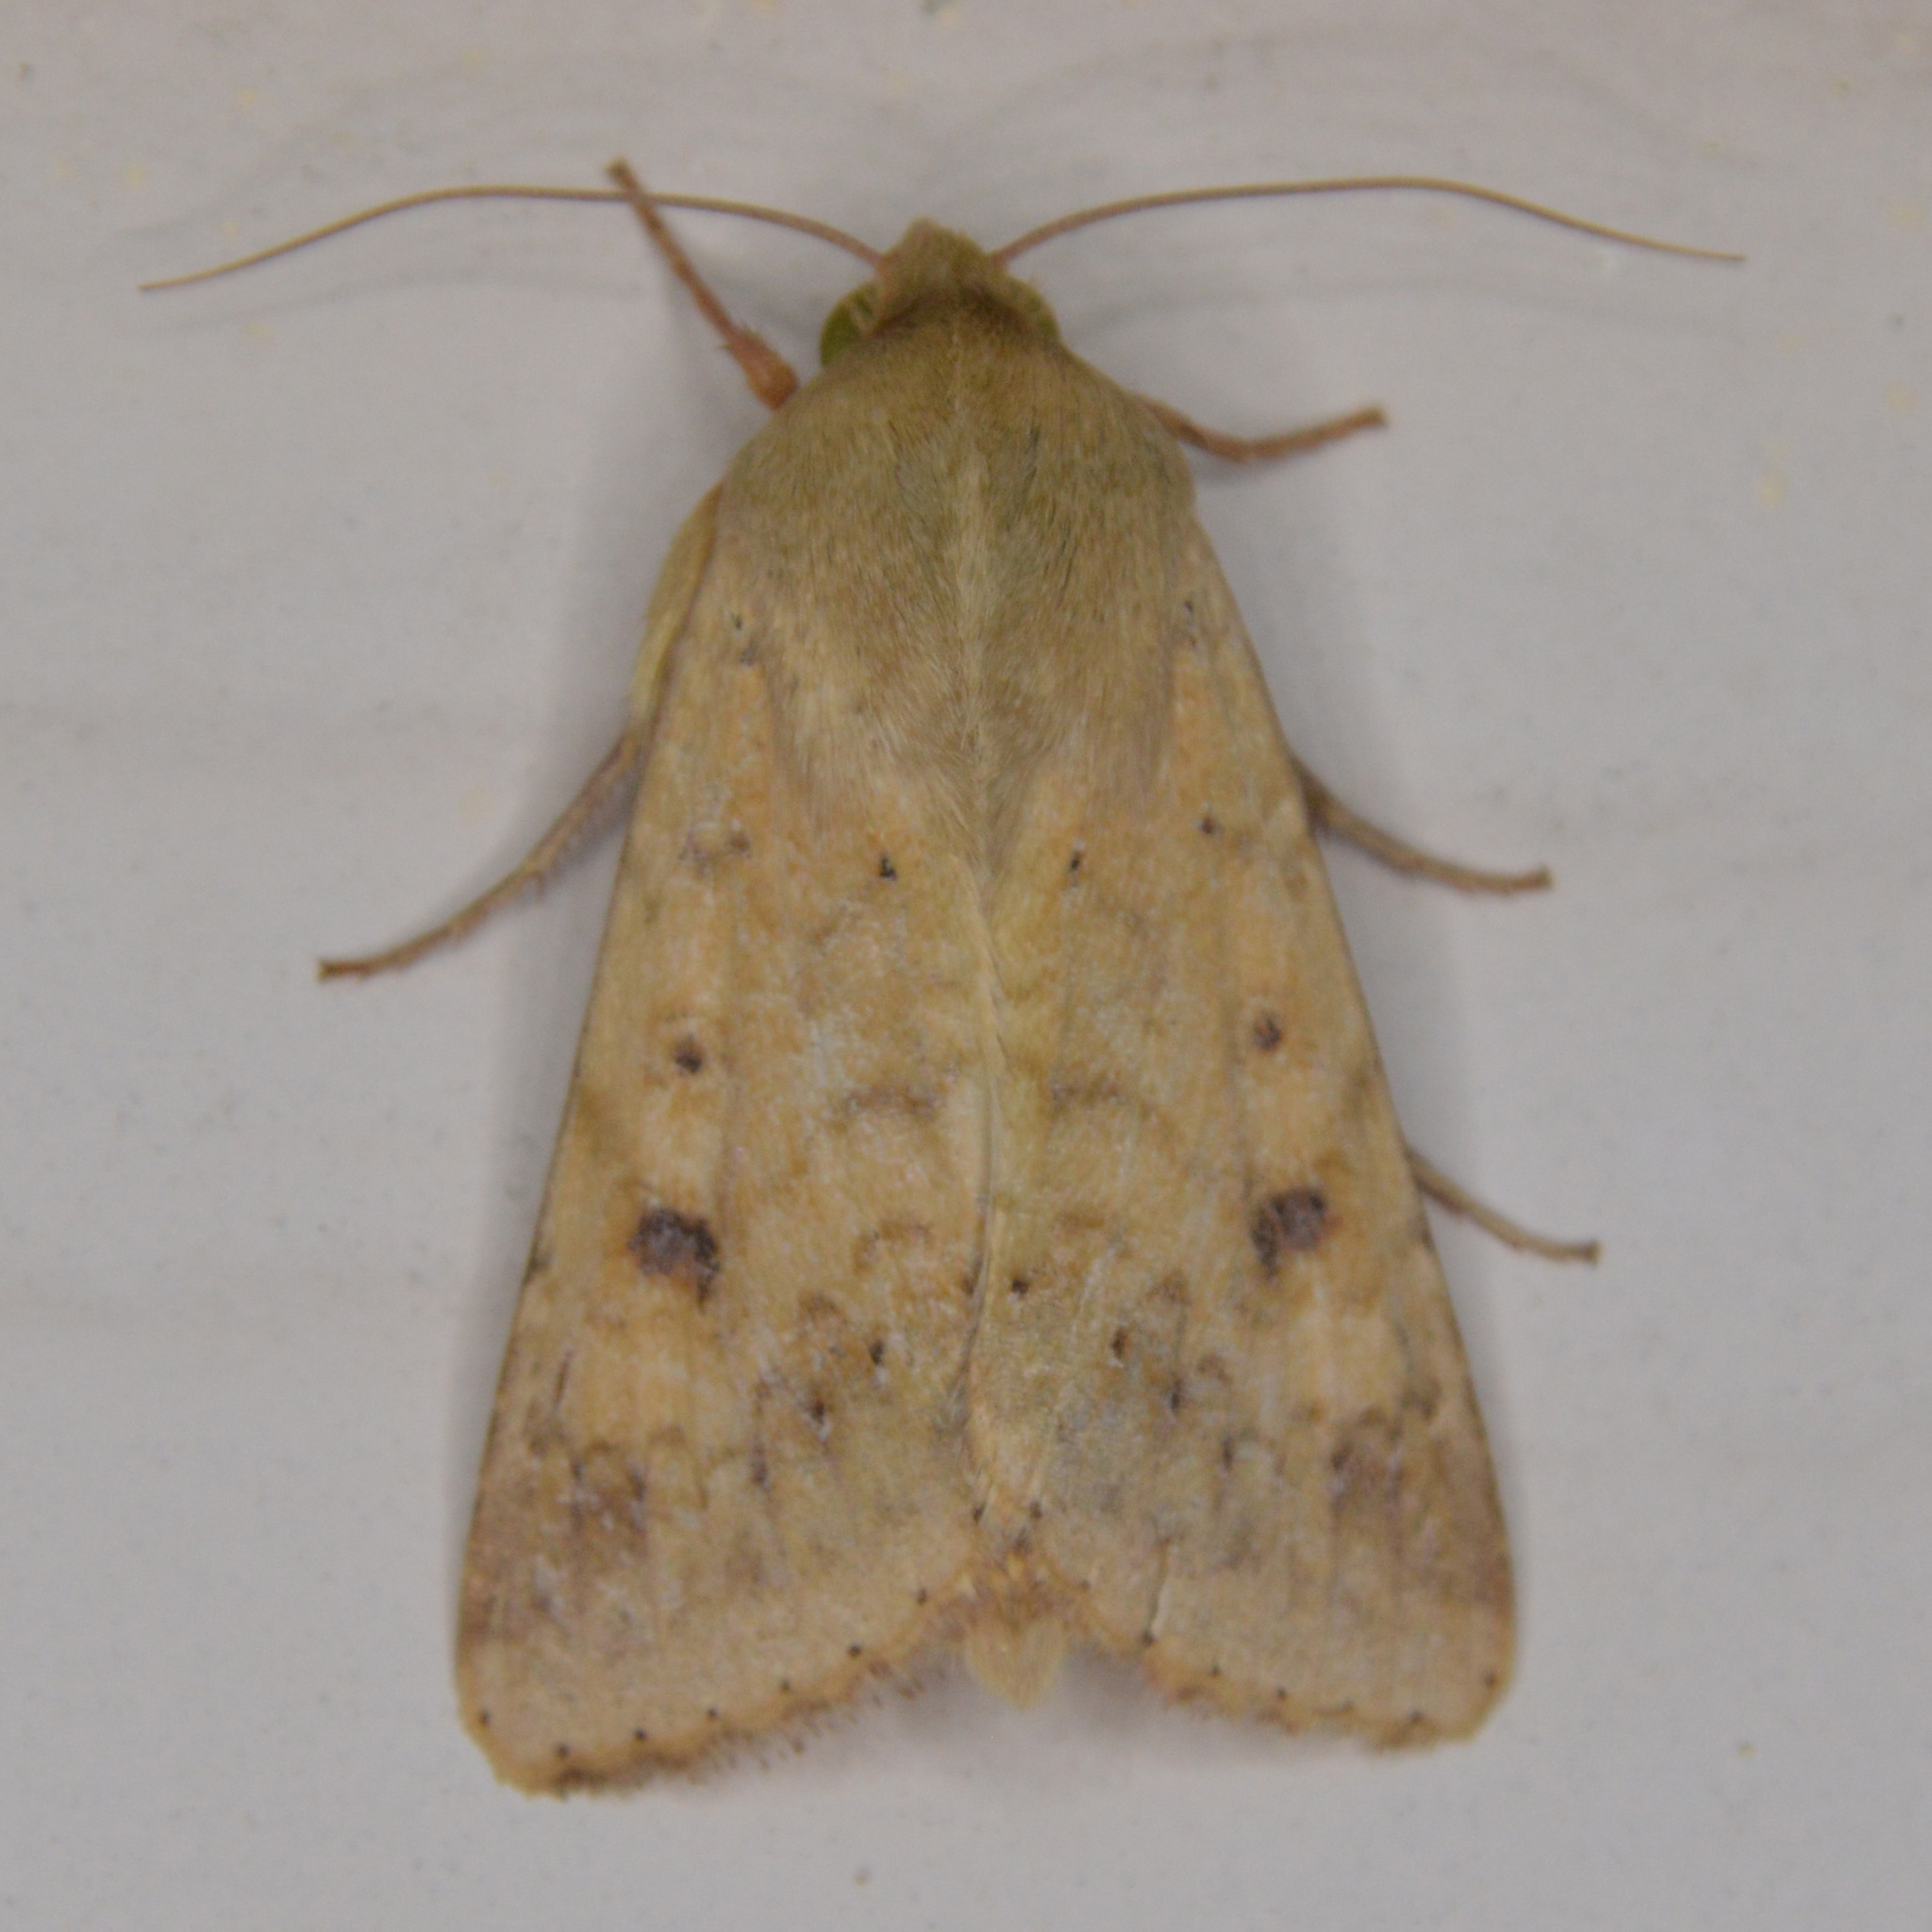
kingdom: Animalia
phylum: Arthropoda
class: Insecta
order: Lepidoptera
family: Noctuidae
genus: Helicoverpa
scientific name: Helicoverpa zea
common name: Bollworm
